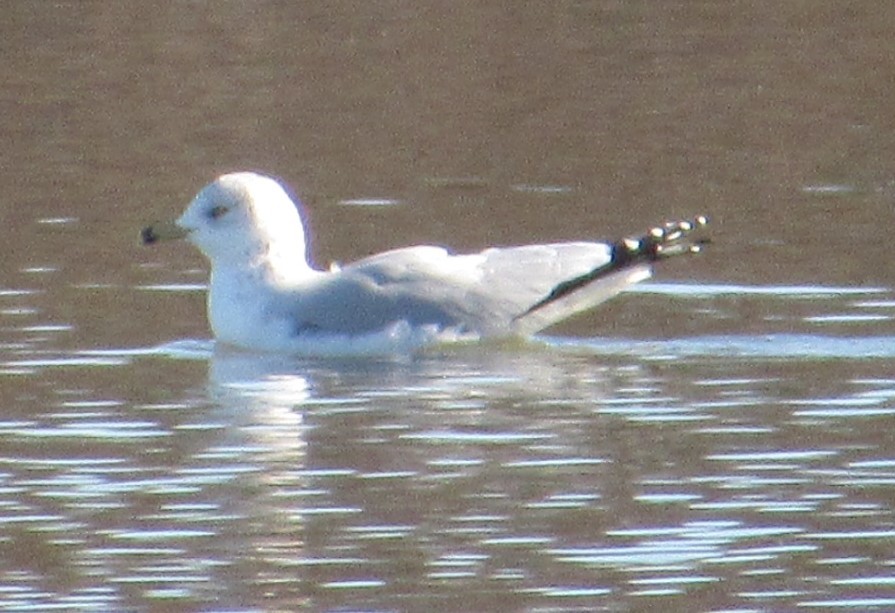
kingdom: Animalia
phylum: Chordata
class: Aves
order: Charadriiformes
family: Laridae
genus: Larus
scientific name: Larus delawarensis
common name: Ring-billed gull
